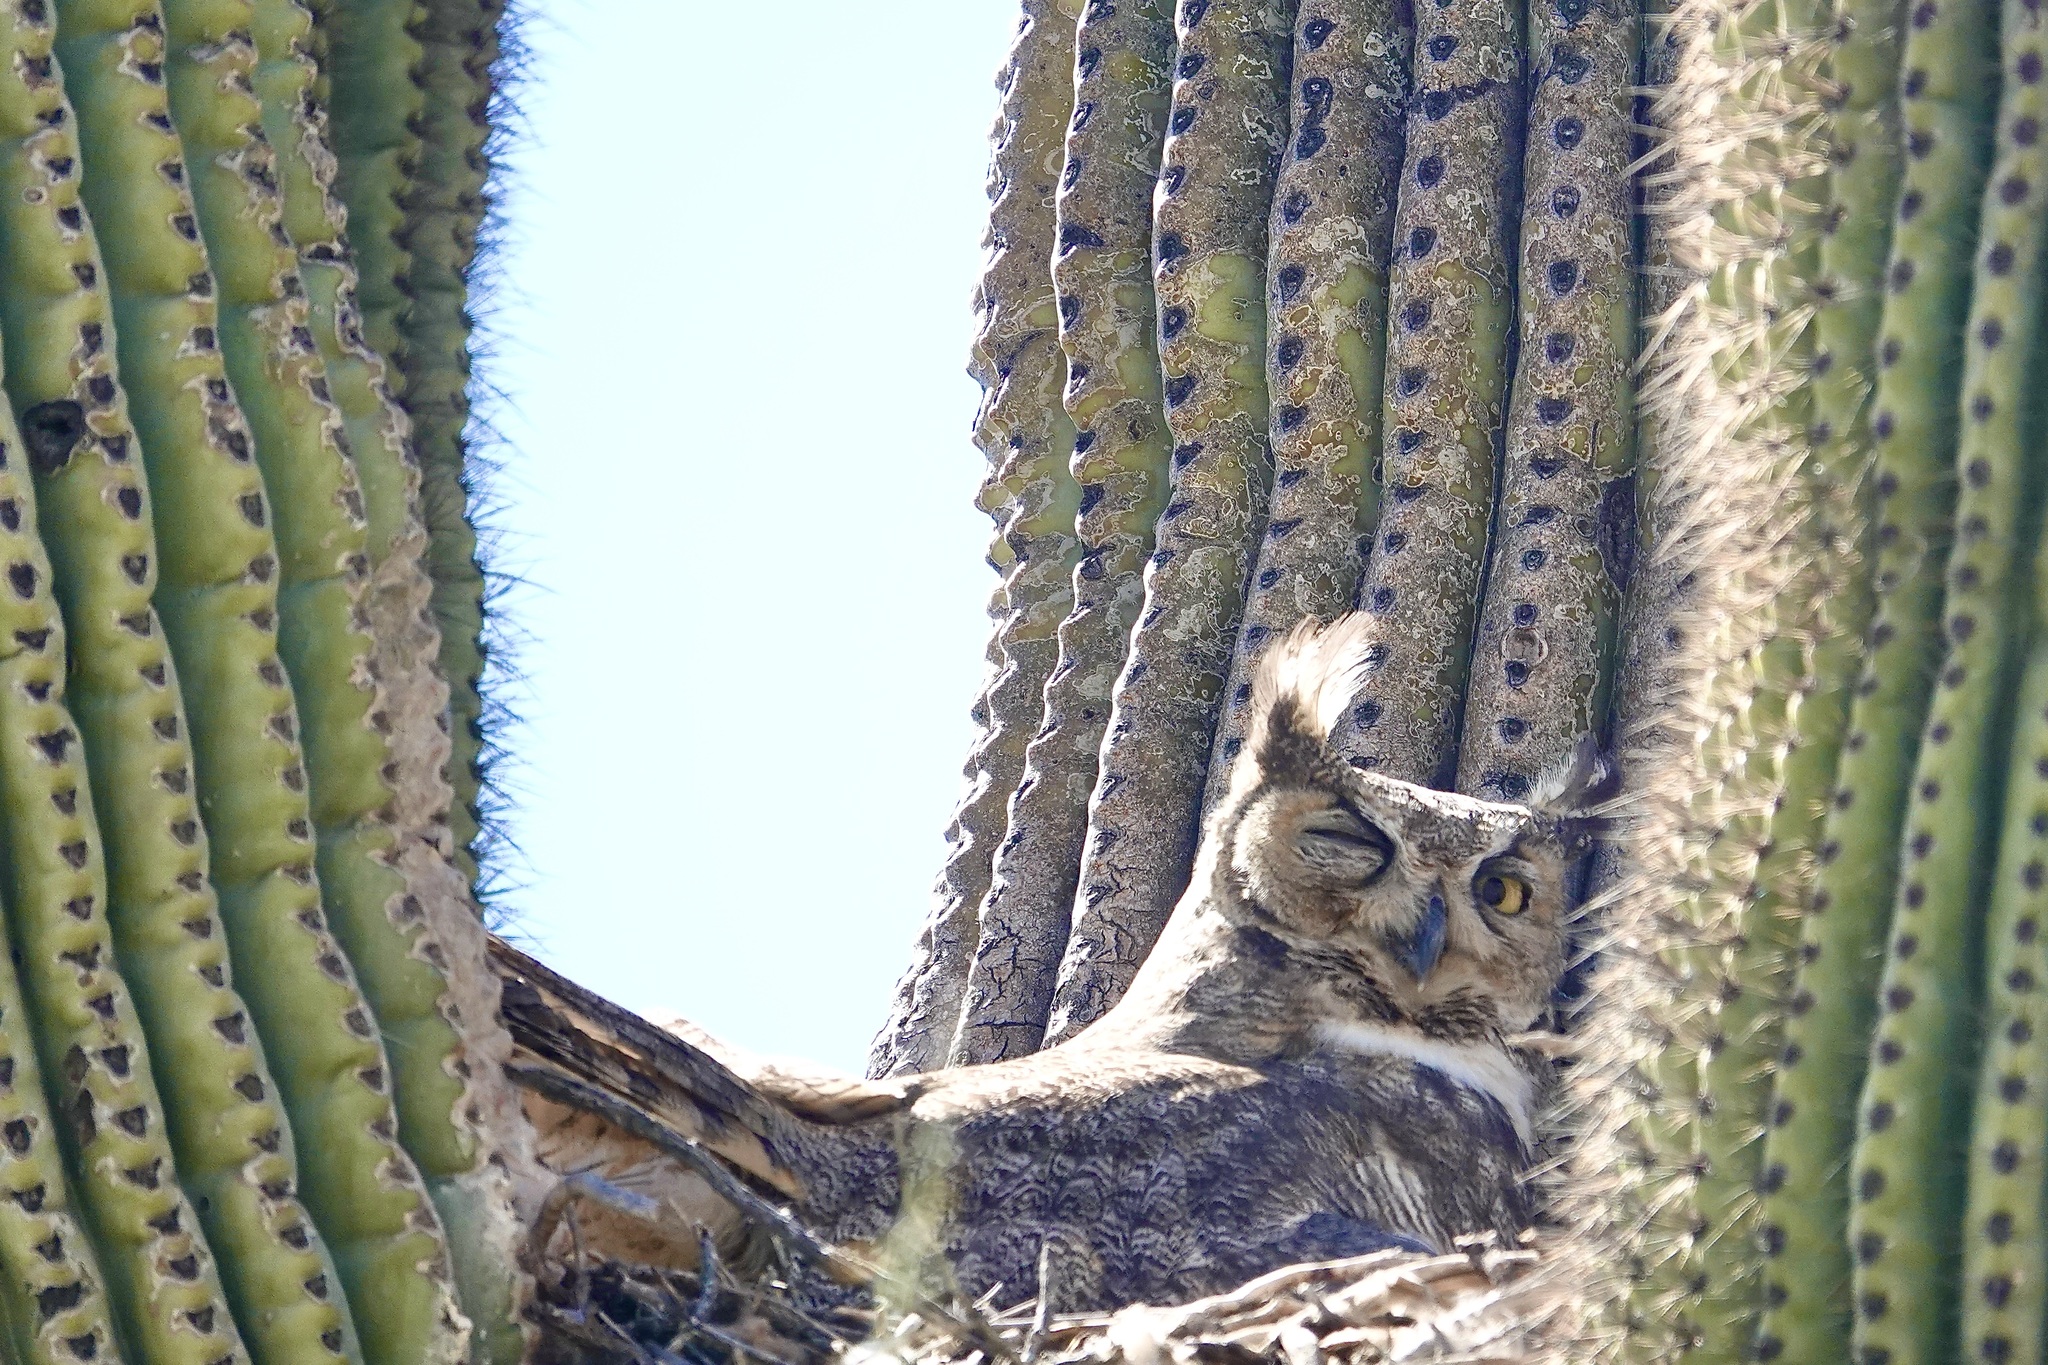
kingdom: Animalia
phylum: Chordata
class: Aves
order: Strigiformes
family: Strigidae
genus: Bubo
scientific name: Bubo virginianus
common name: Great horned owl
